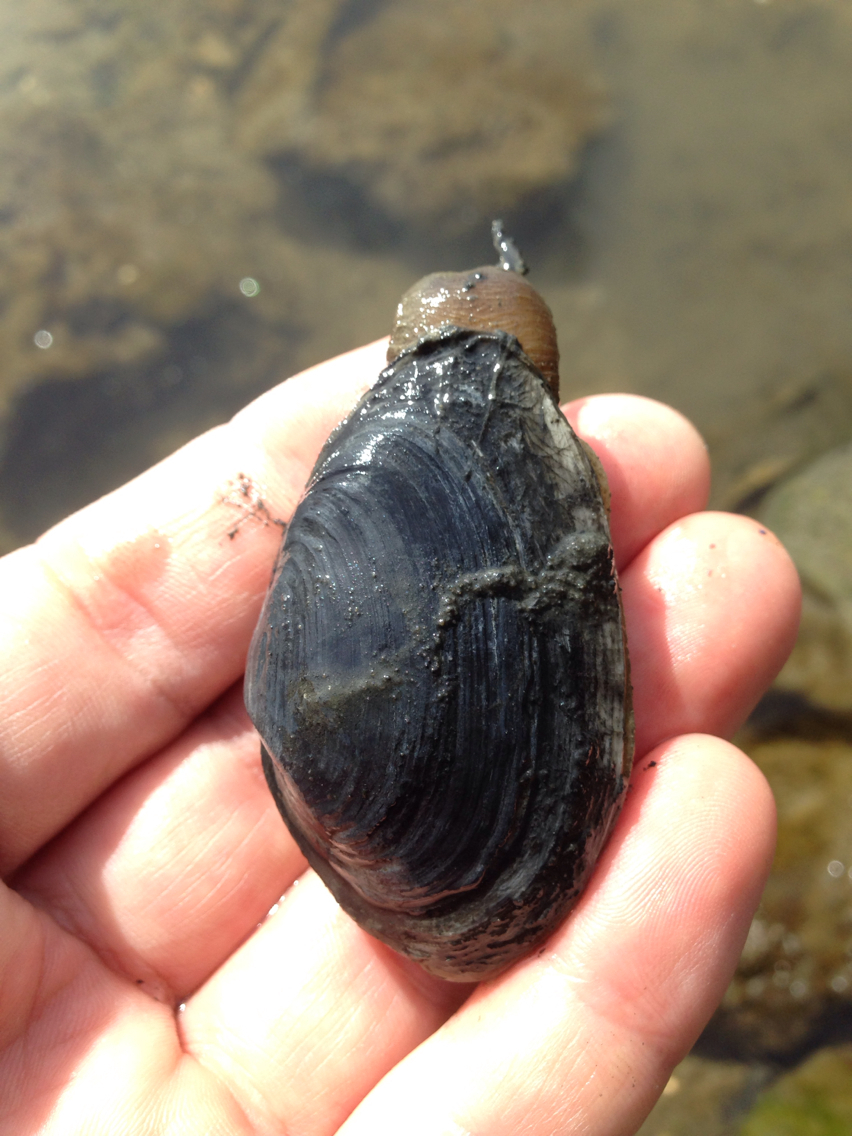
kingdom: Animalia
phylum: Mollusca
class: Bivalvia
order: Myida
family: Myidae
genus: Mya
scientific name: Mya arenaria
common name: Soft-shelled clam
